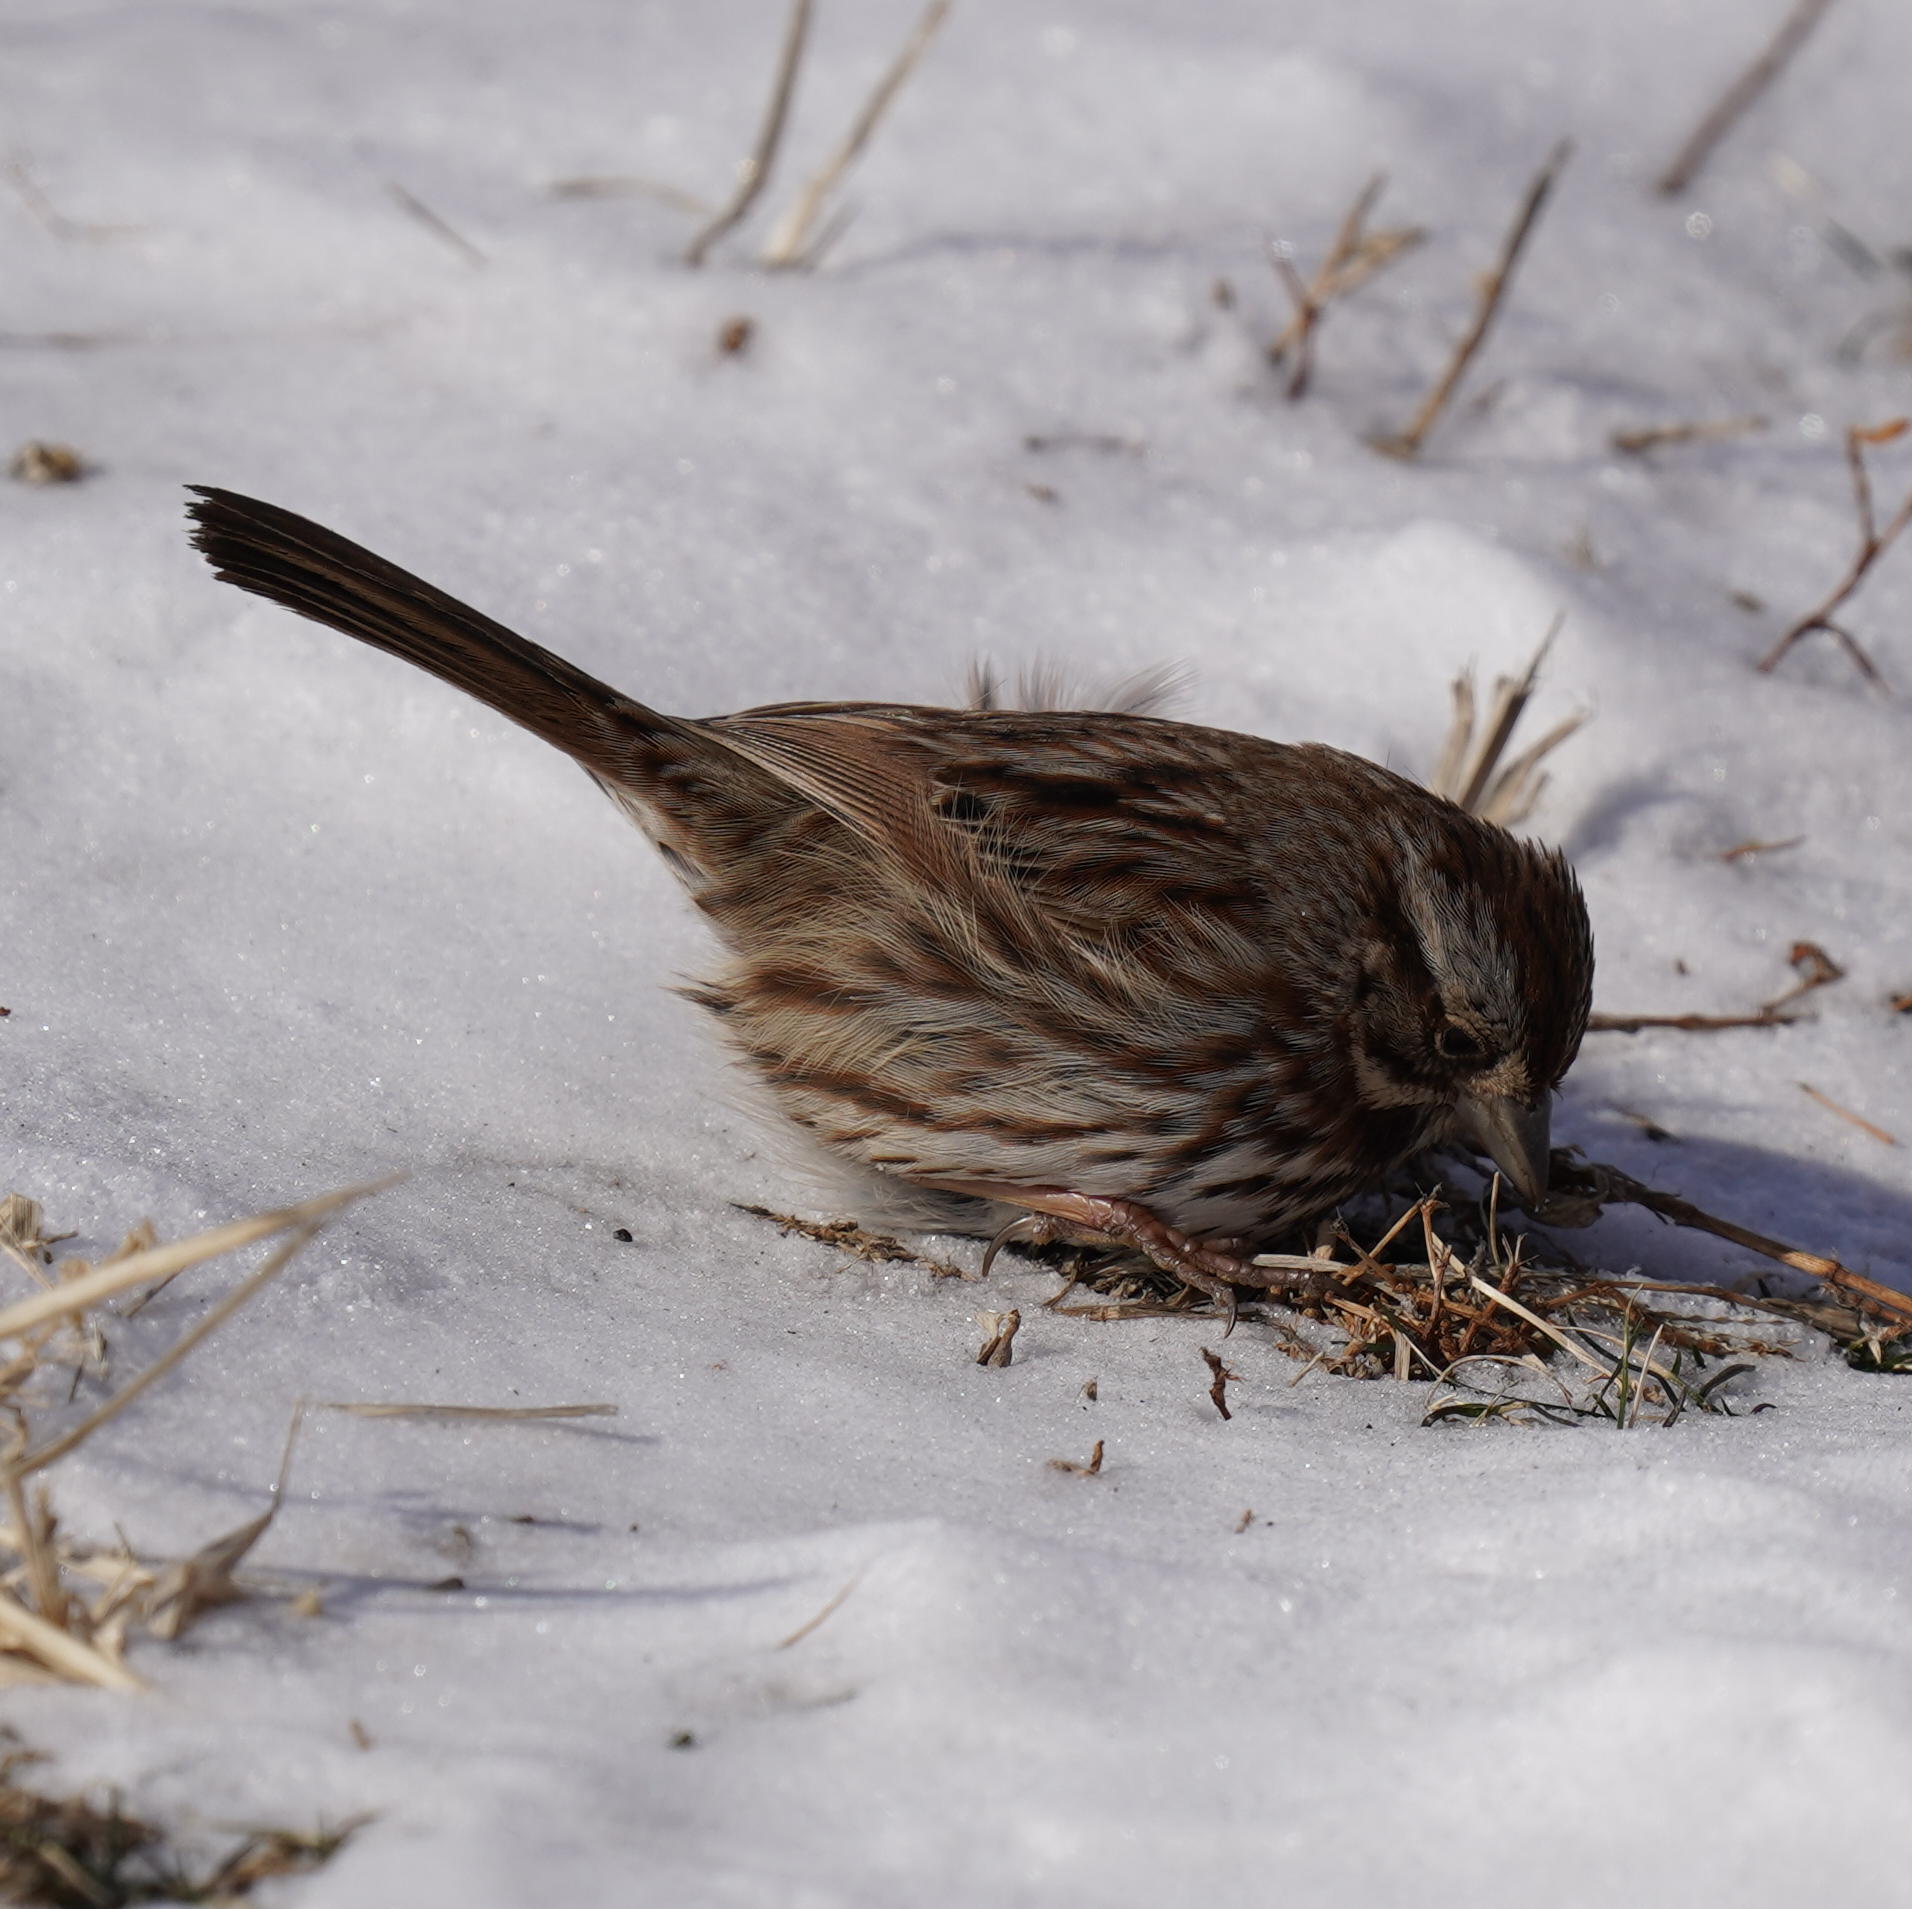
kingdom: Animalia
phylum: Chordata
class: Aves
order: Passeriformes
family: Passerellidae
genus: Melospiza
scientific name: Melospiza melodia
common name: Song sparrow
